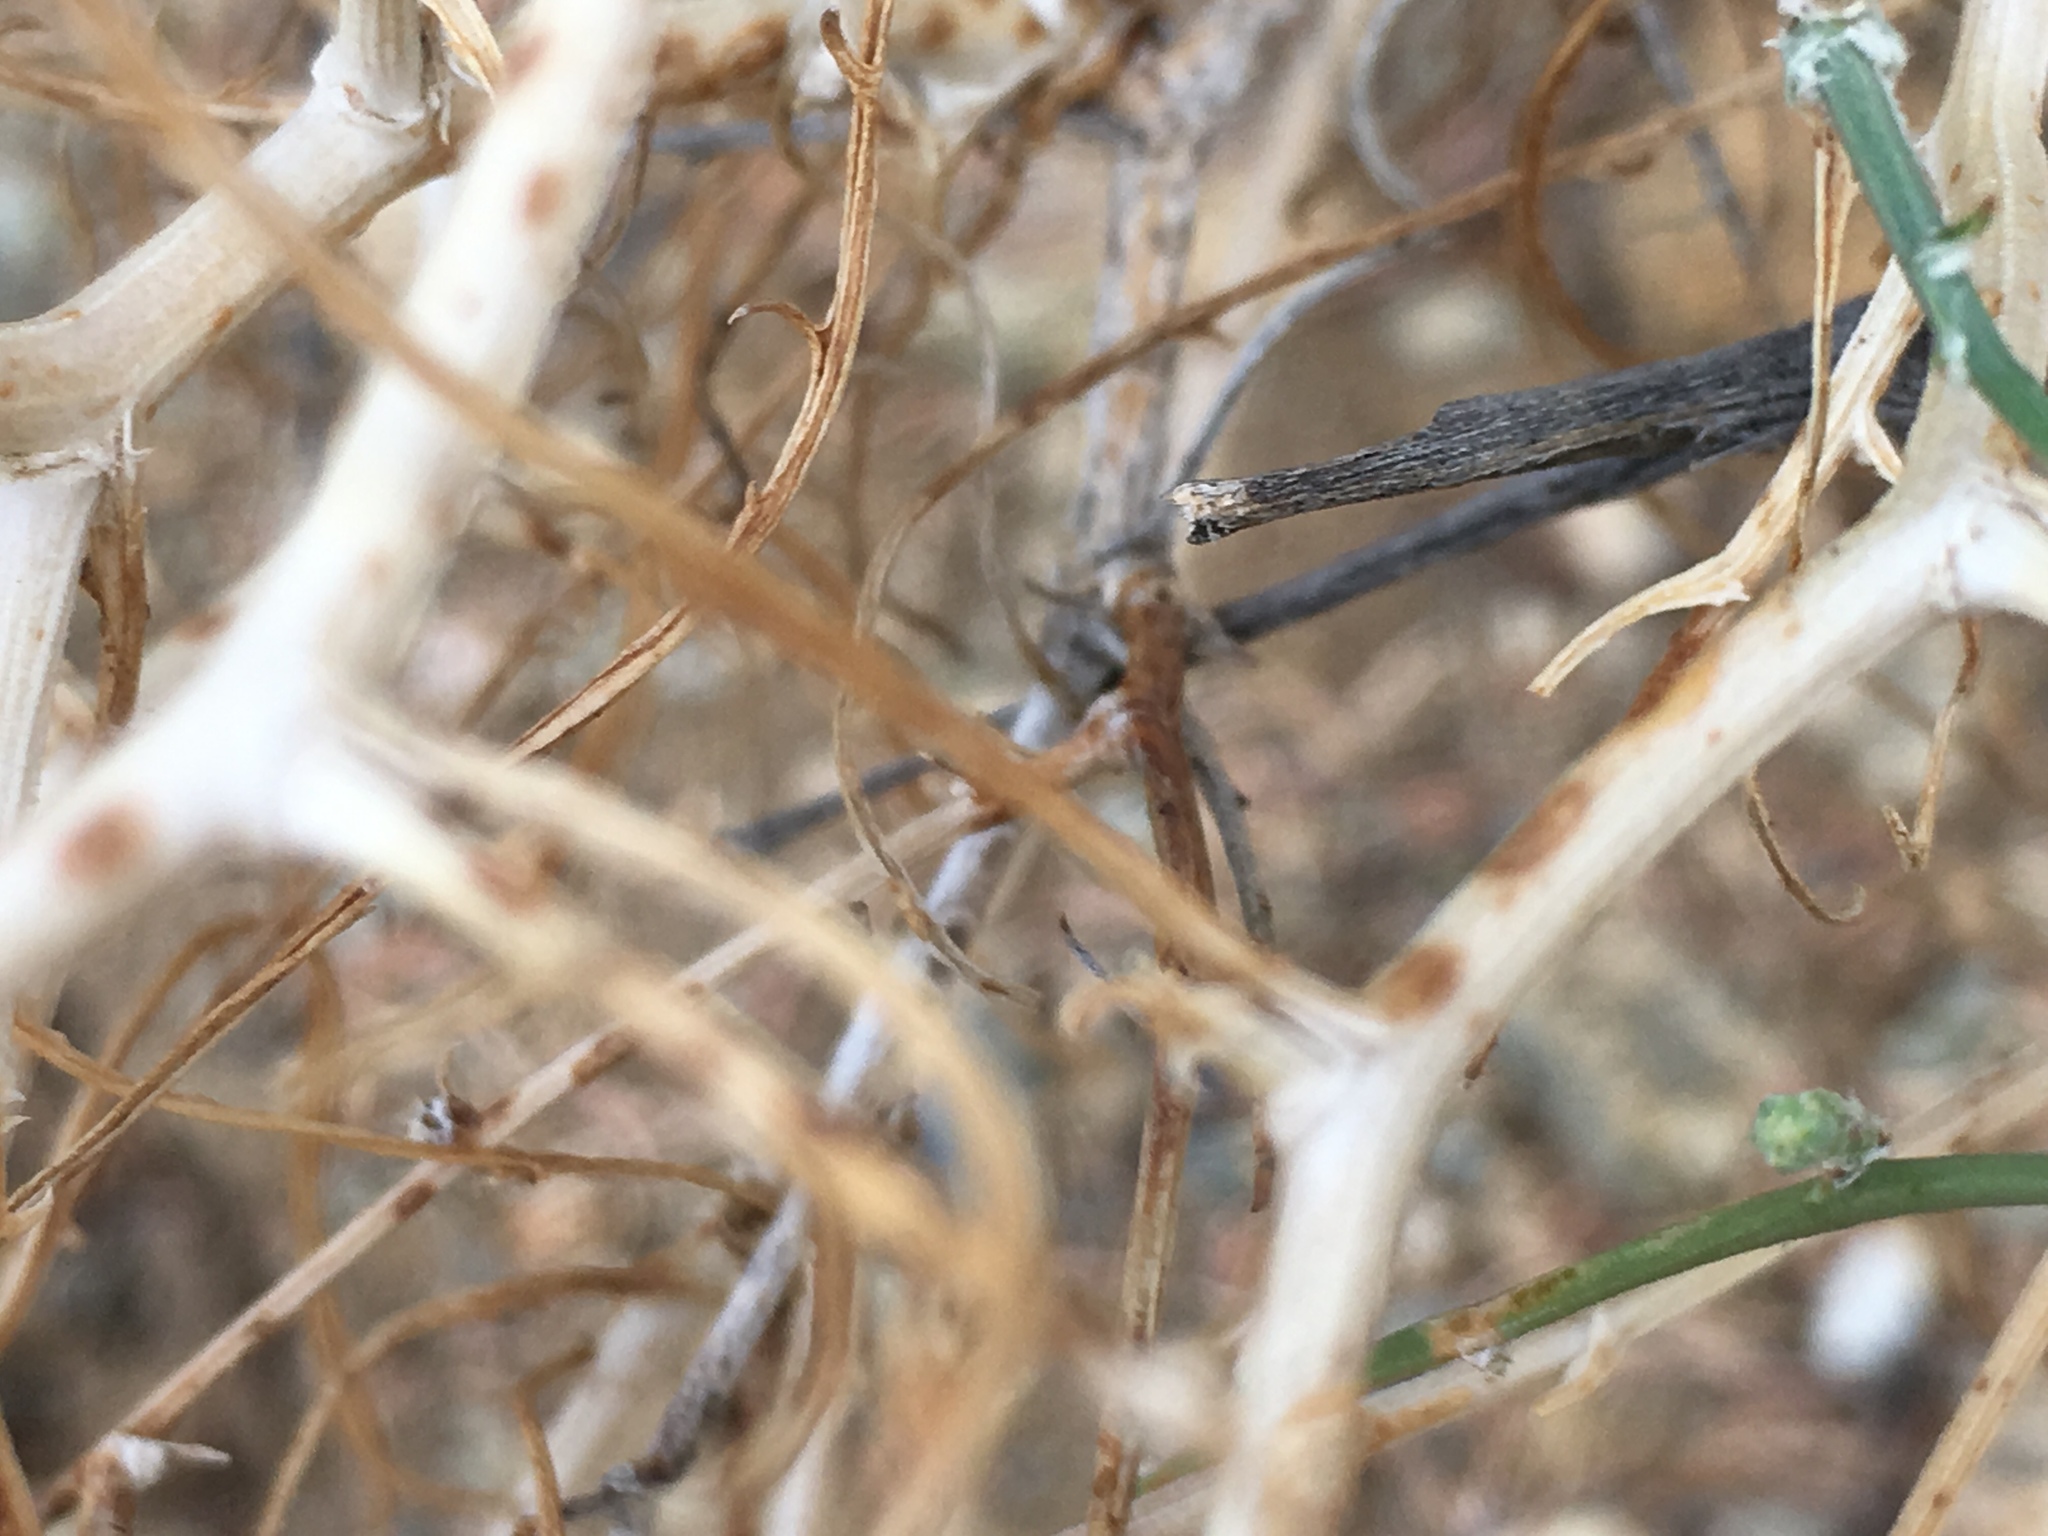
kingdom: Plantae
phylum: Tracheophyta
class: Magnoliopsida
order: Asterales
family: Asteraceae
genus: Stephanomeria
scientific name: Stephanomeria pauciflora
